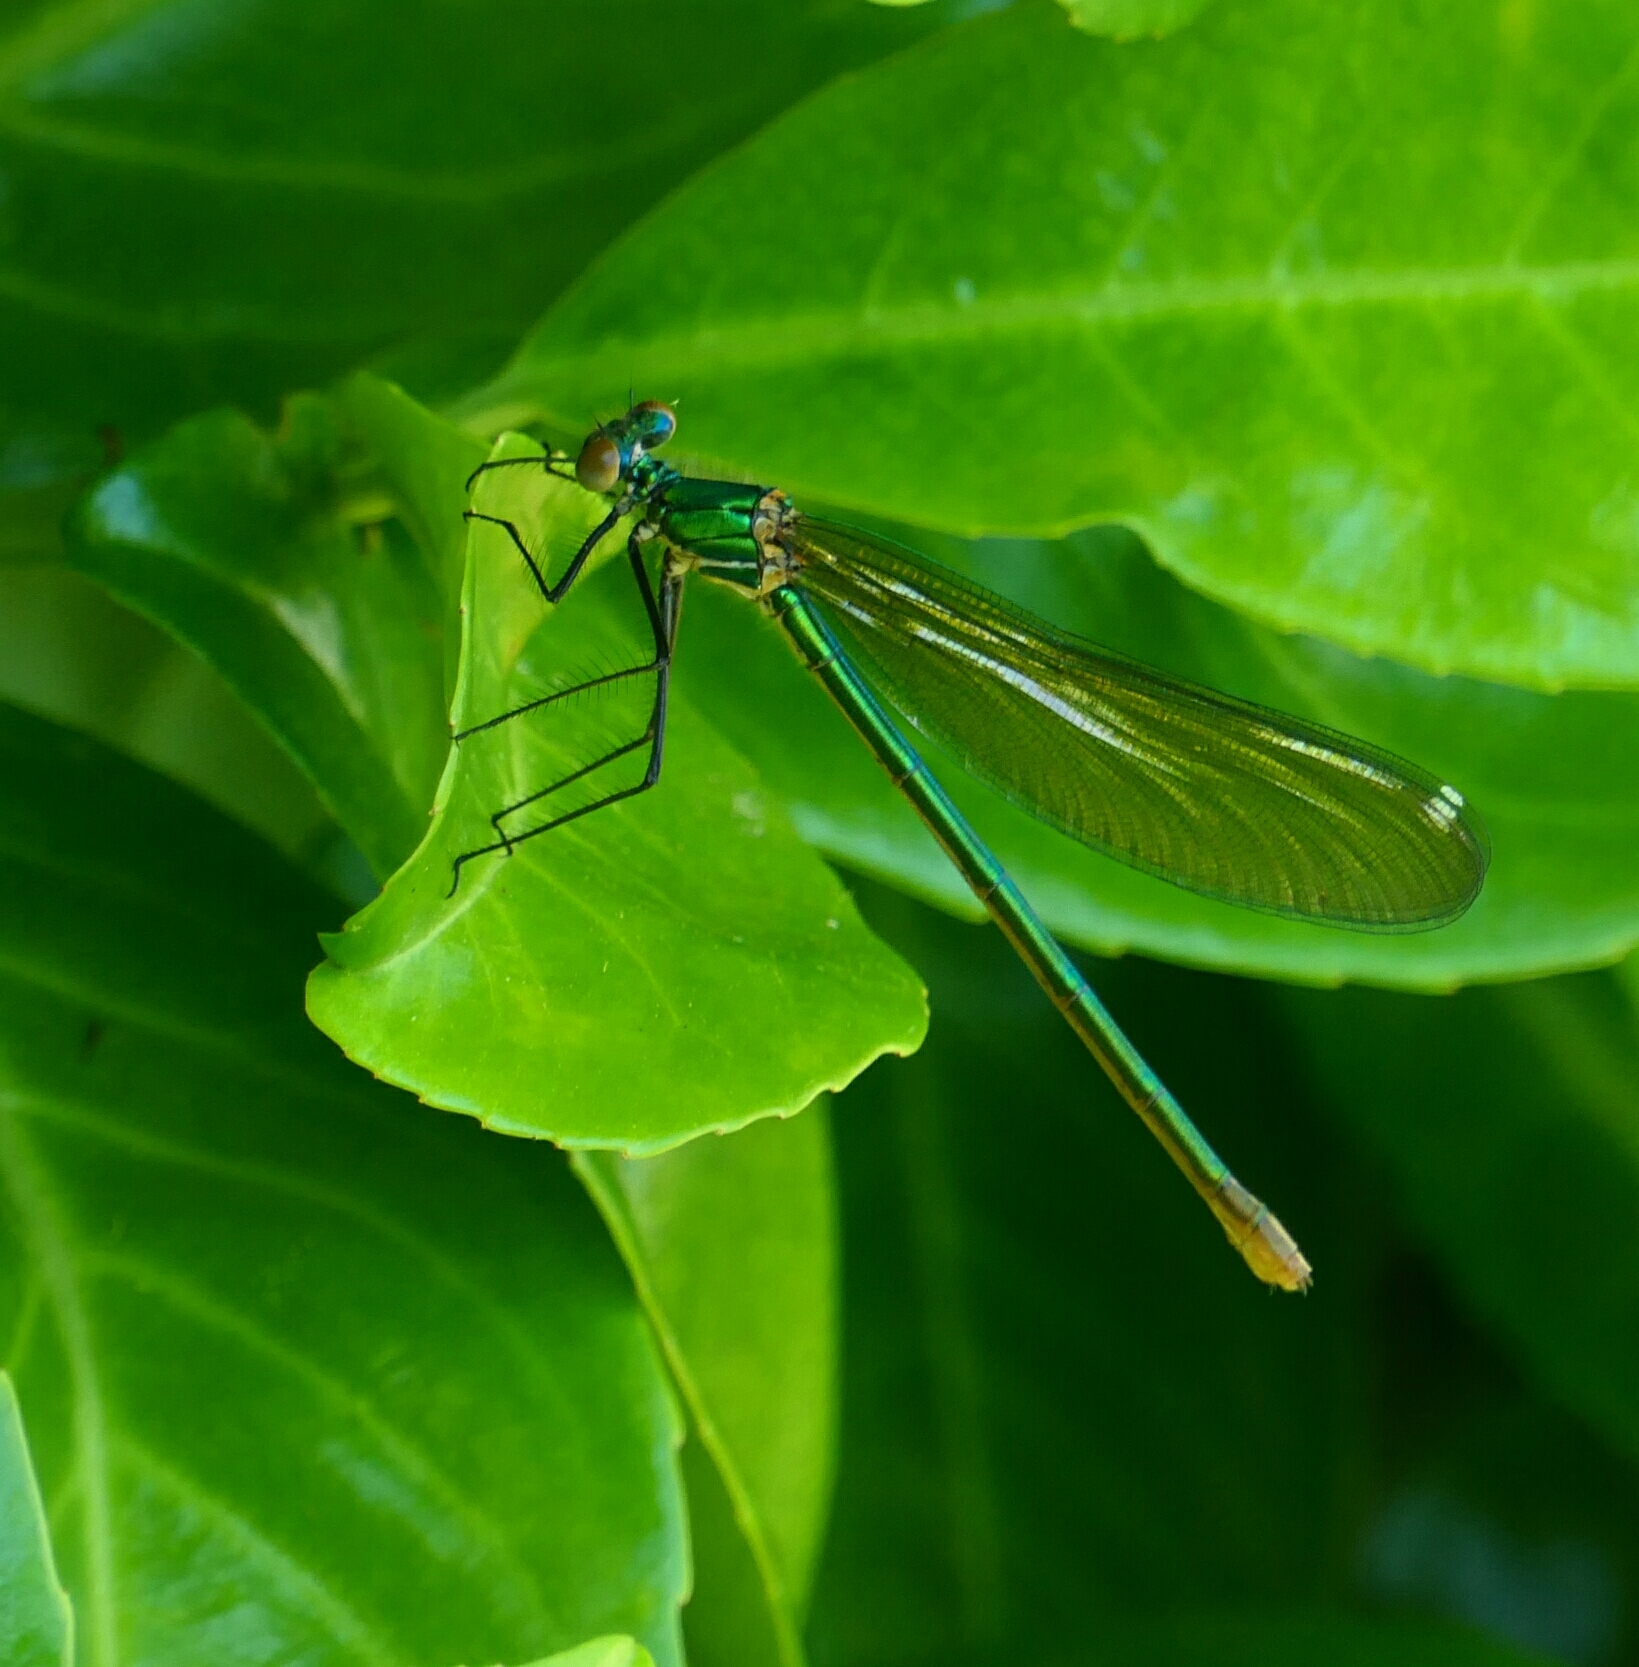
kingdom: Animalia
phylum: Arthropoda
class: Insecta
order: Odonata
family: Calopterygidae
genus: Calopteryx
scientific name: Calopteryx xanthostoma
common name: Western demoiselle
